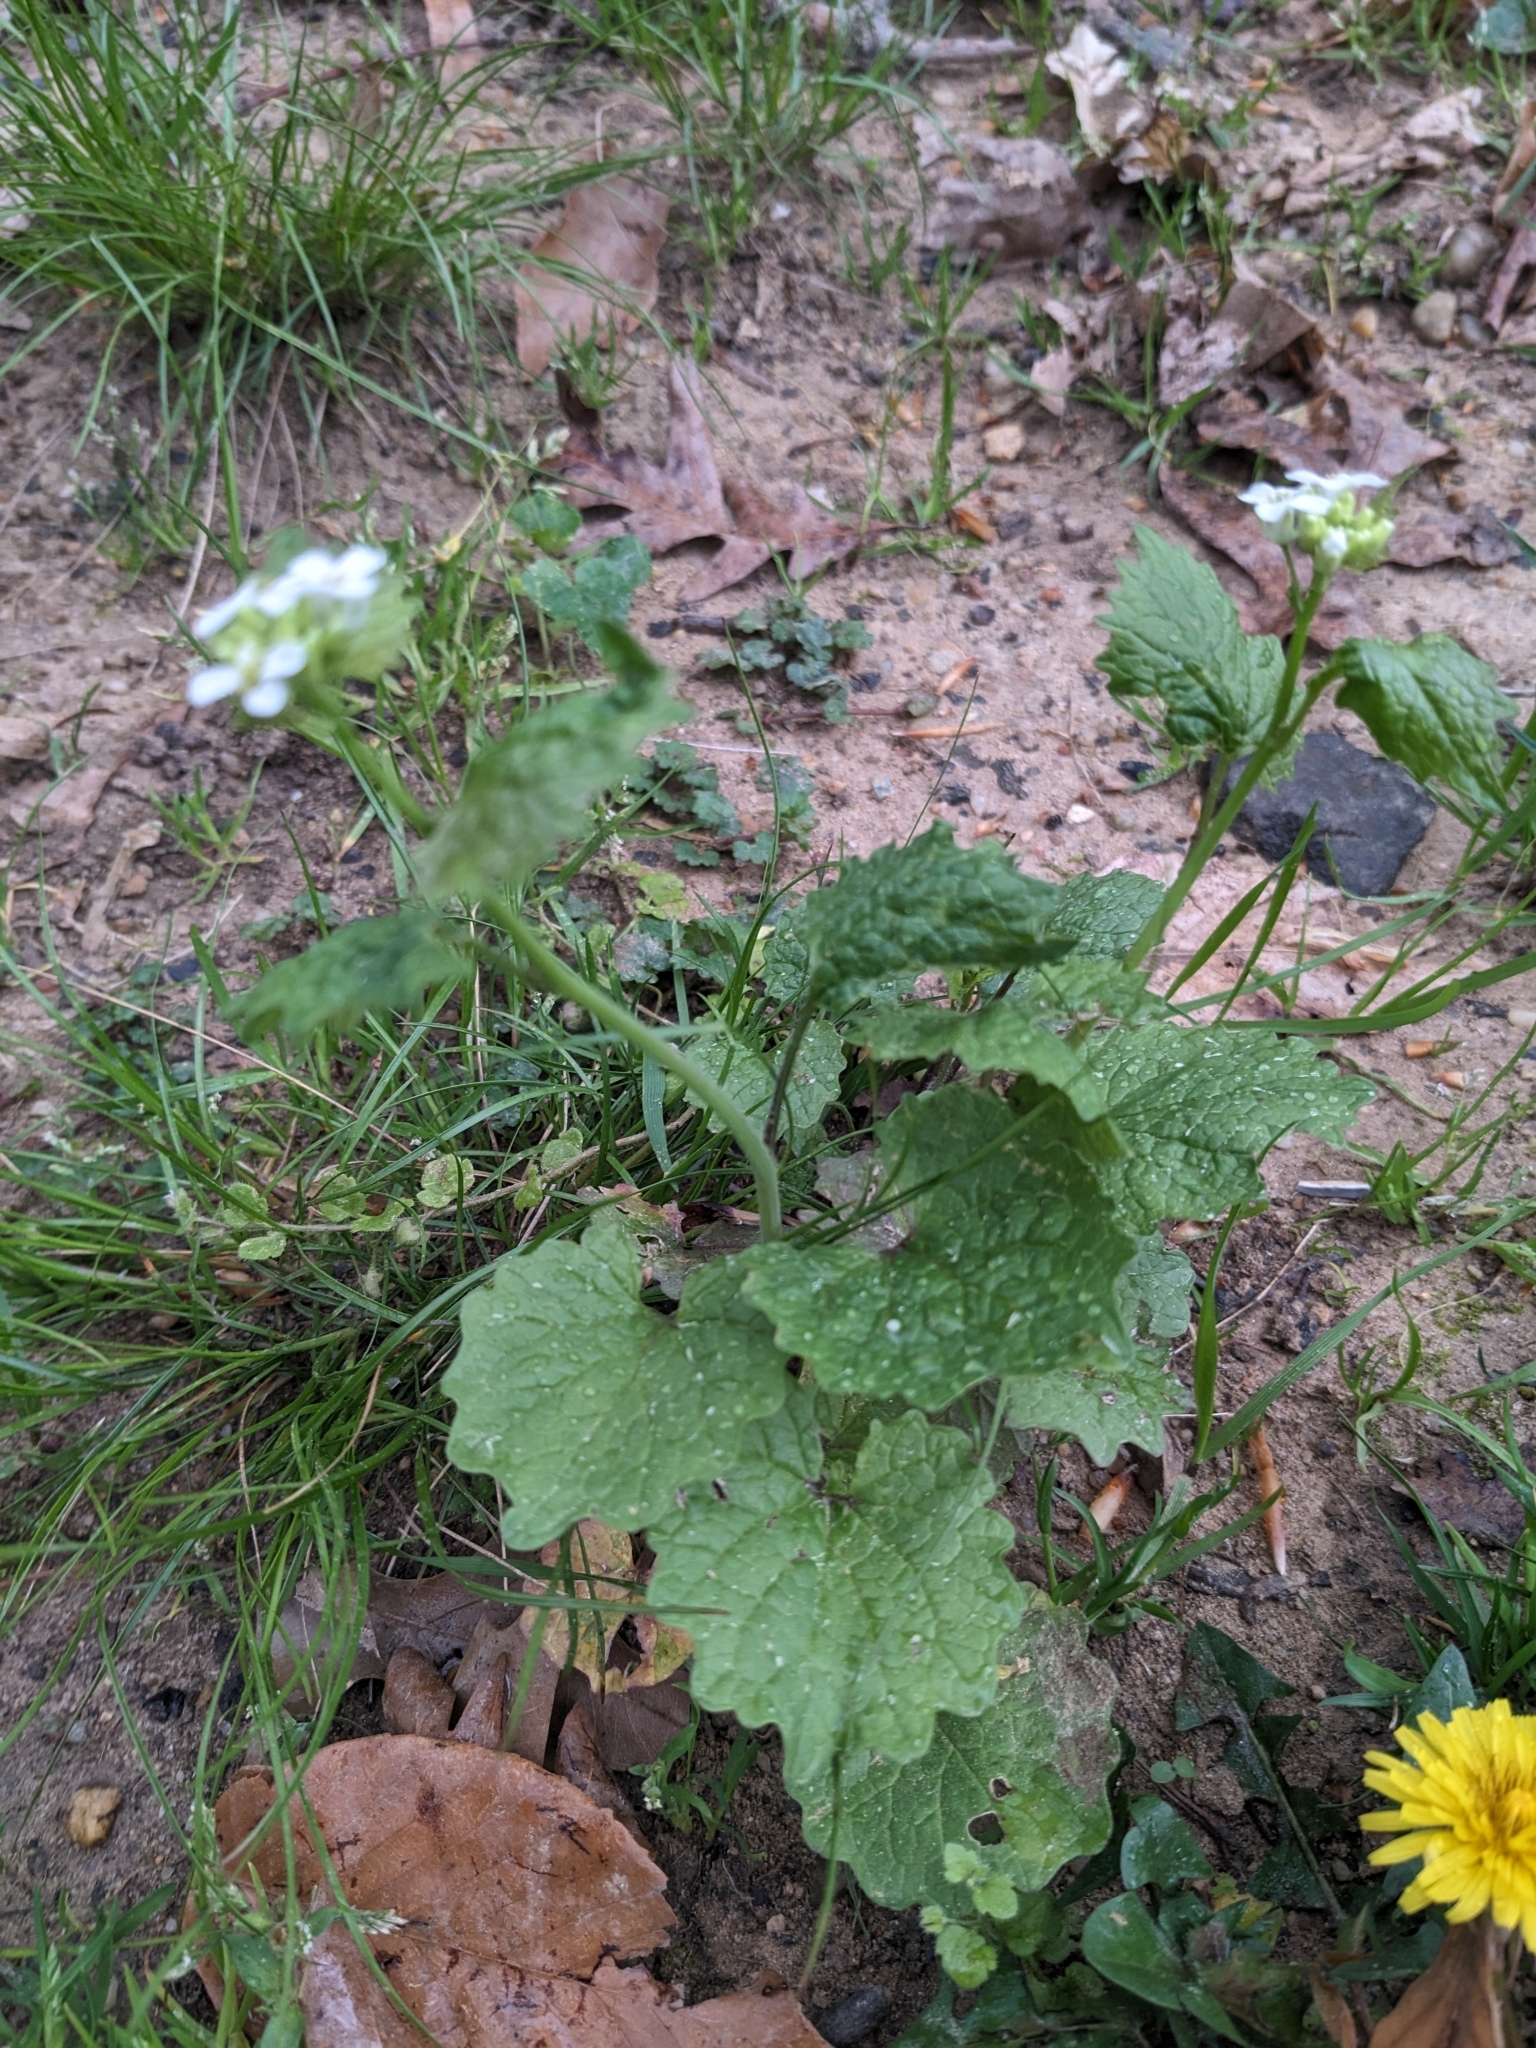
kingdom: Plantae
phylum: Tracheophyta
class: Magnoliopsida
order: Brassicales
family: Brassicaceae
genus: Alliaria
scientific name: Alliaria petiolata
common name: Garlic mustard
